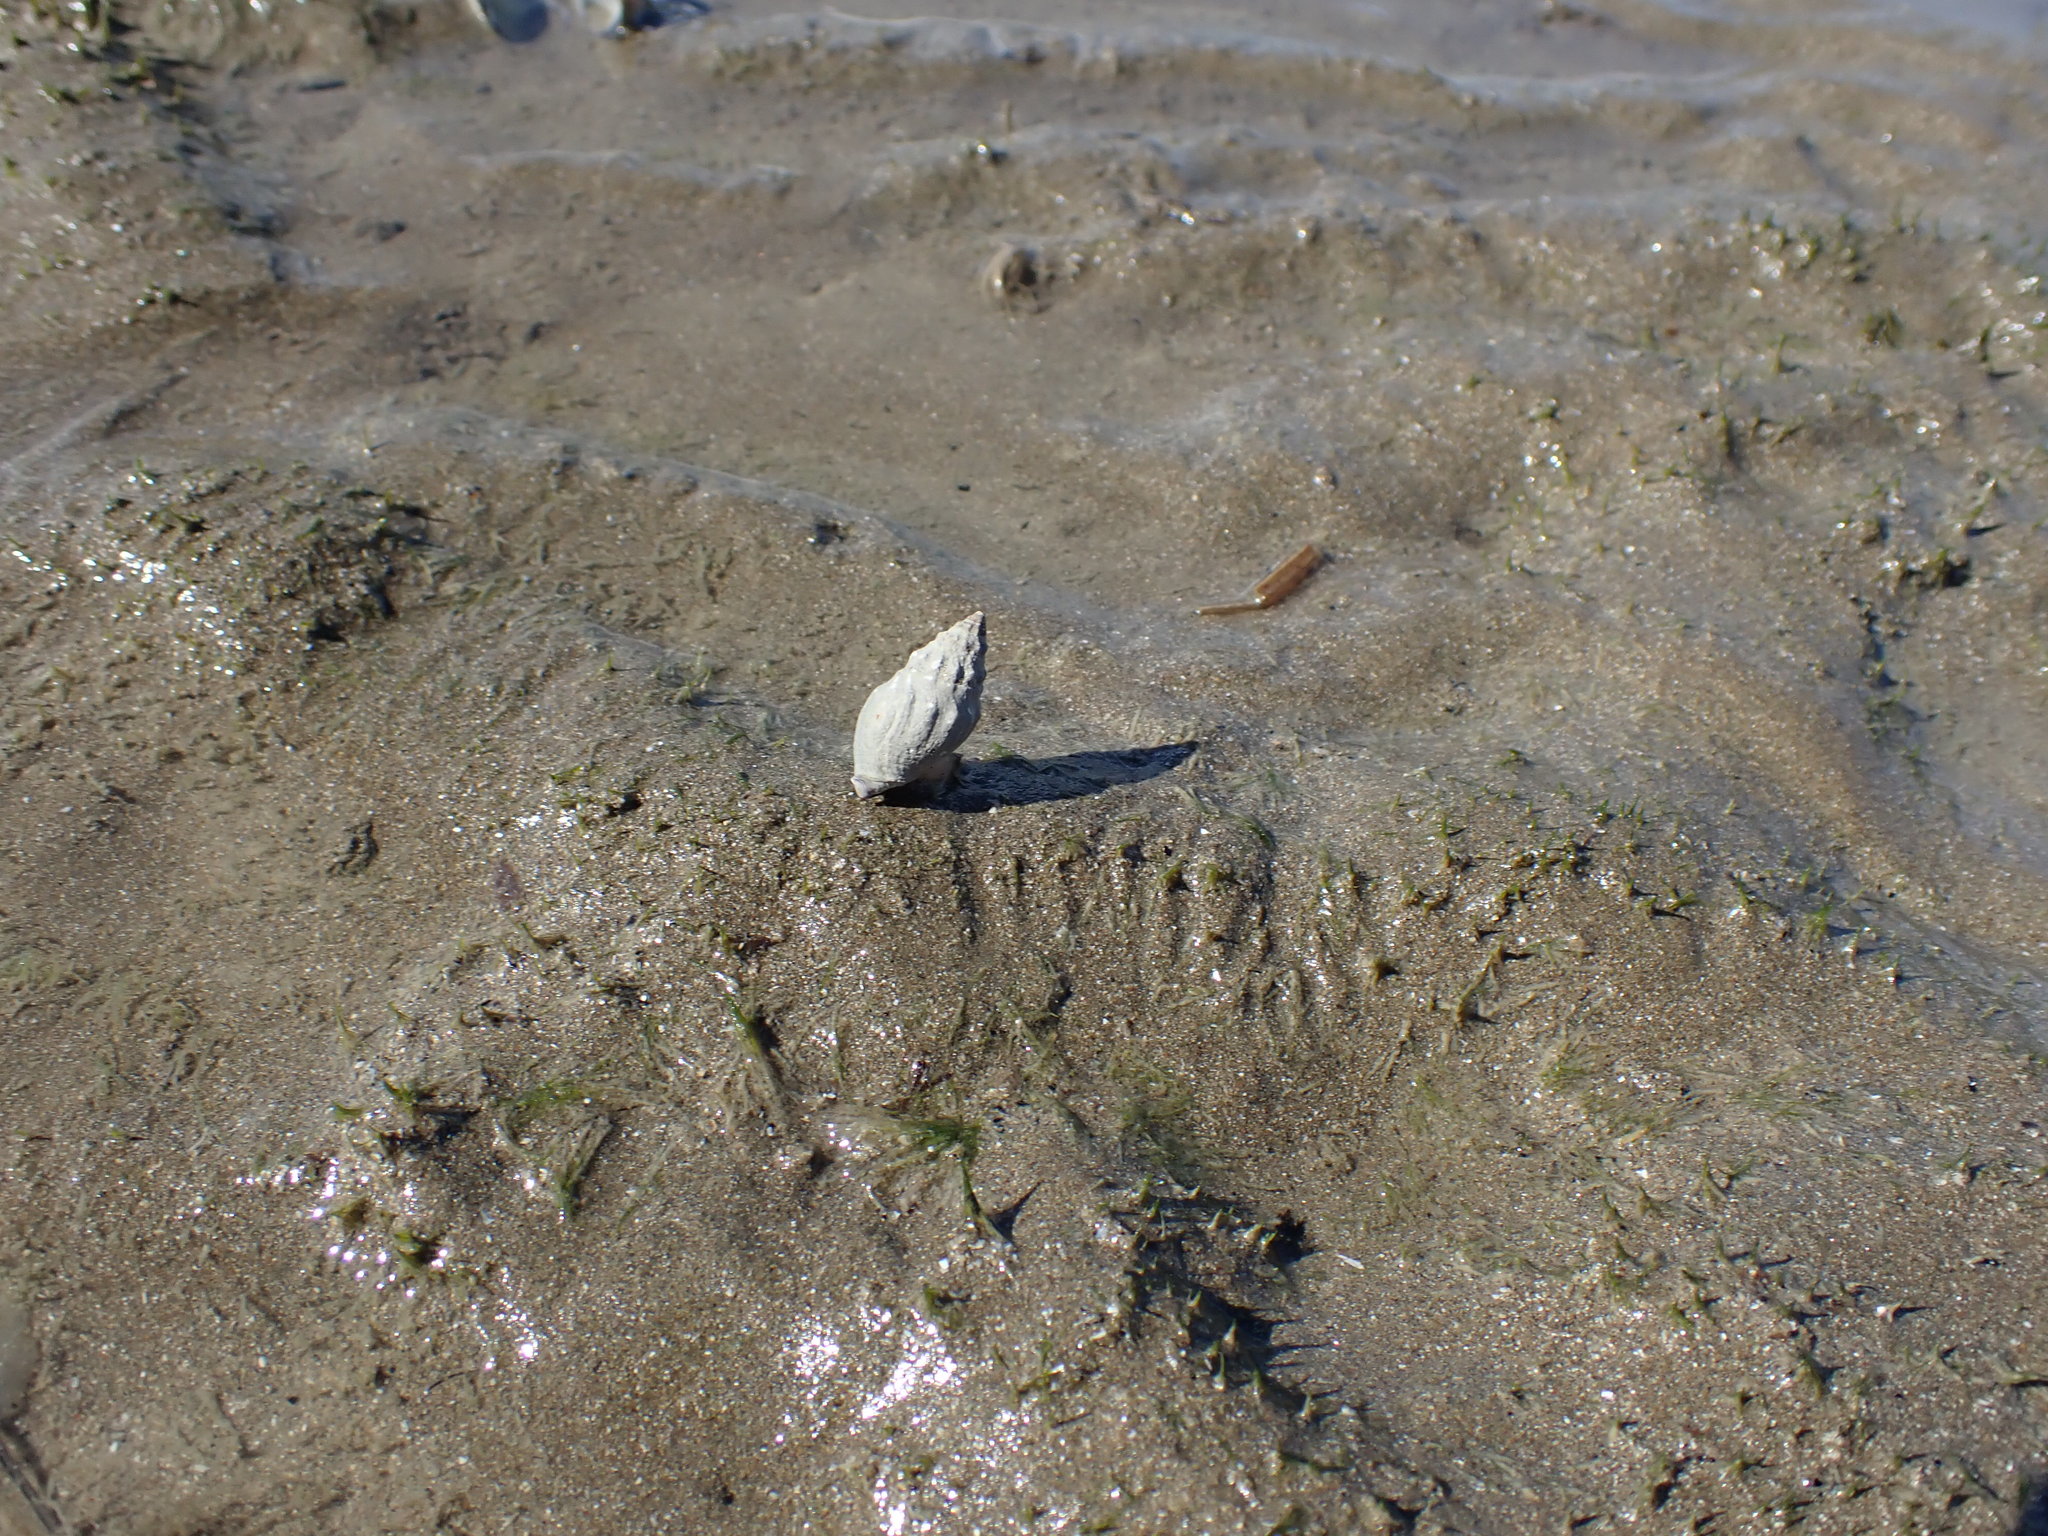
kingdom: Animalia
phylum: Mollusca
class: Gastropoda
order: Neogastropoda
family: Cominellidae
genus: Cominella
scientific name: Cominella glandiformis
